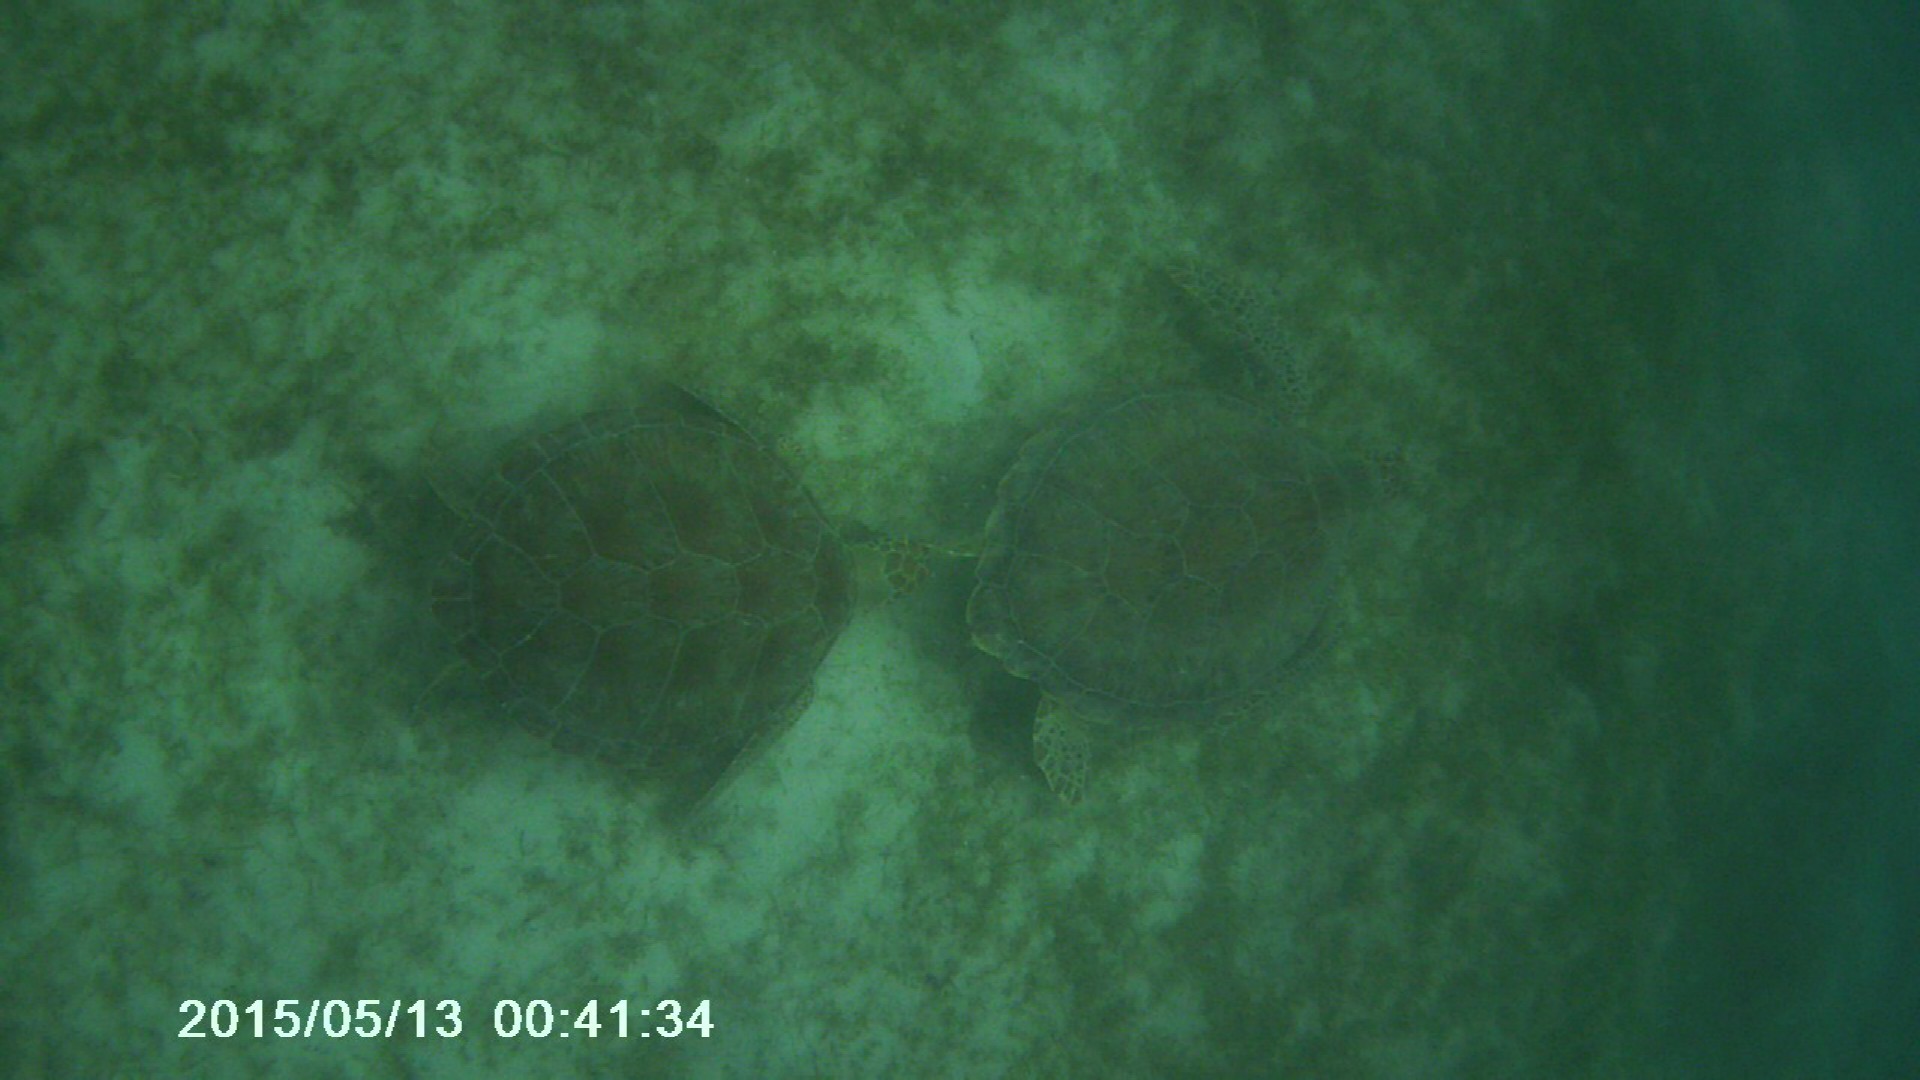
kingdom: Animalia
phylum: Chordata
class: Testudines
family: Cheloniidae
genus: Chelonia
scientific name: Chelonia mydas
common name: Green turtle
